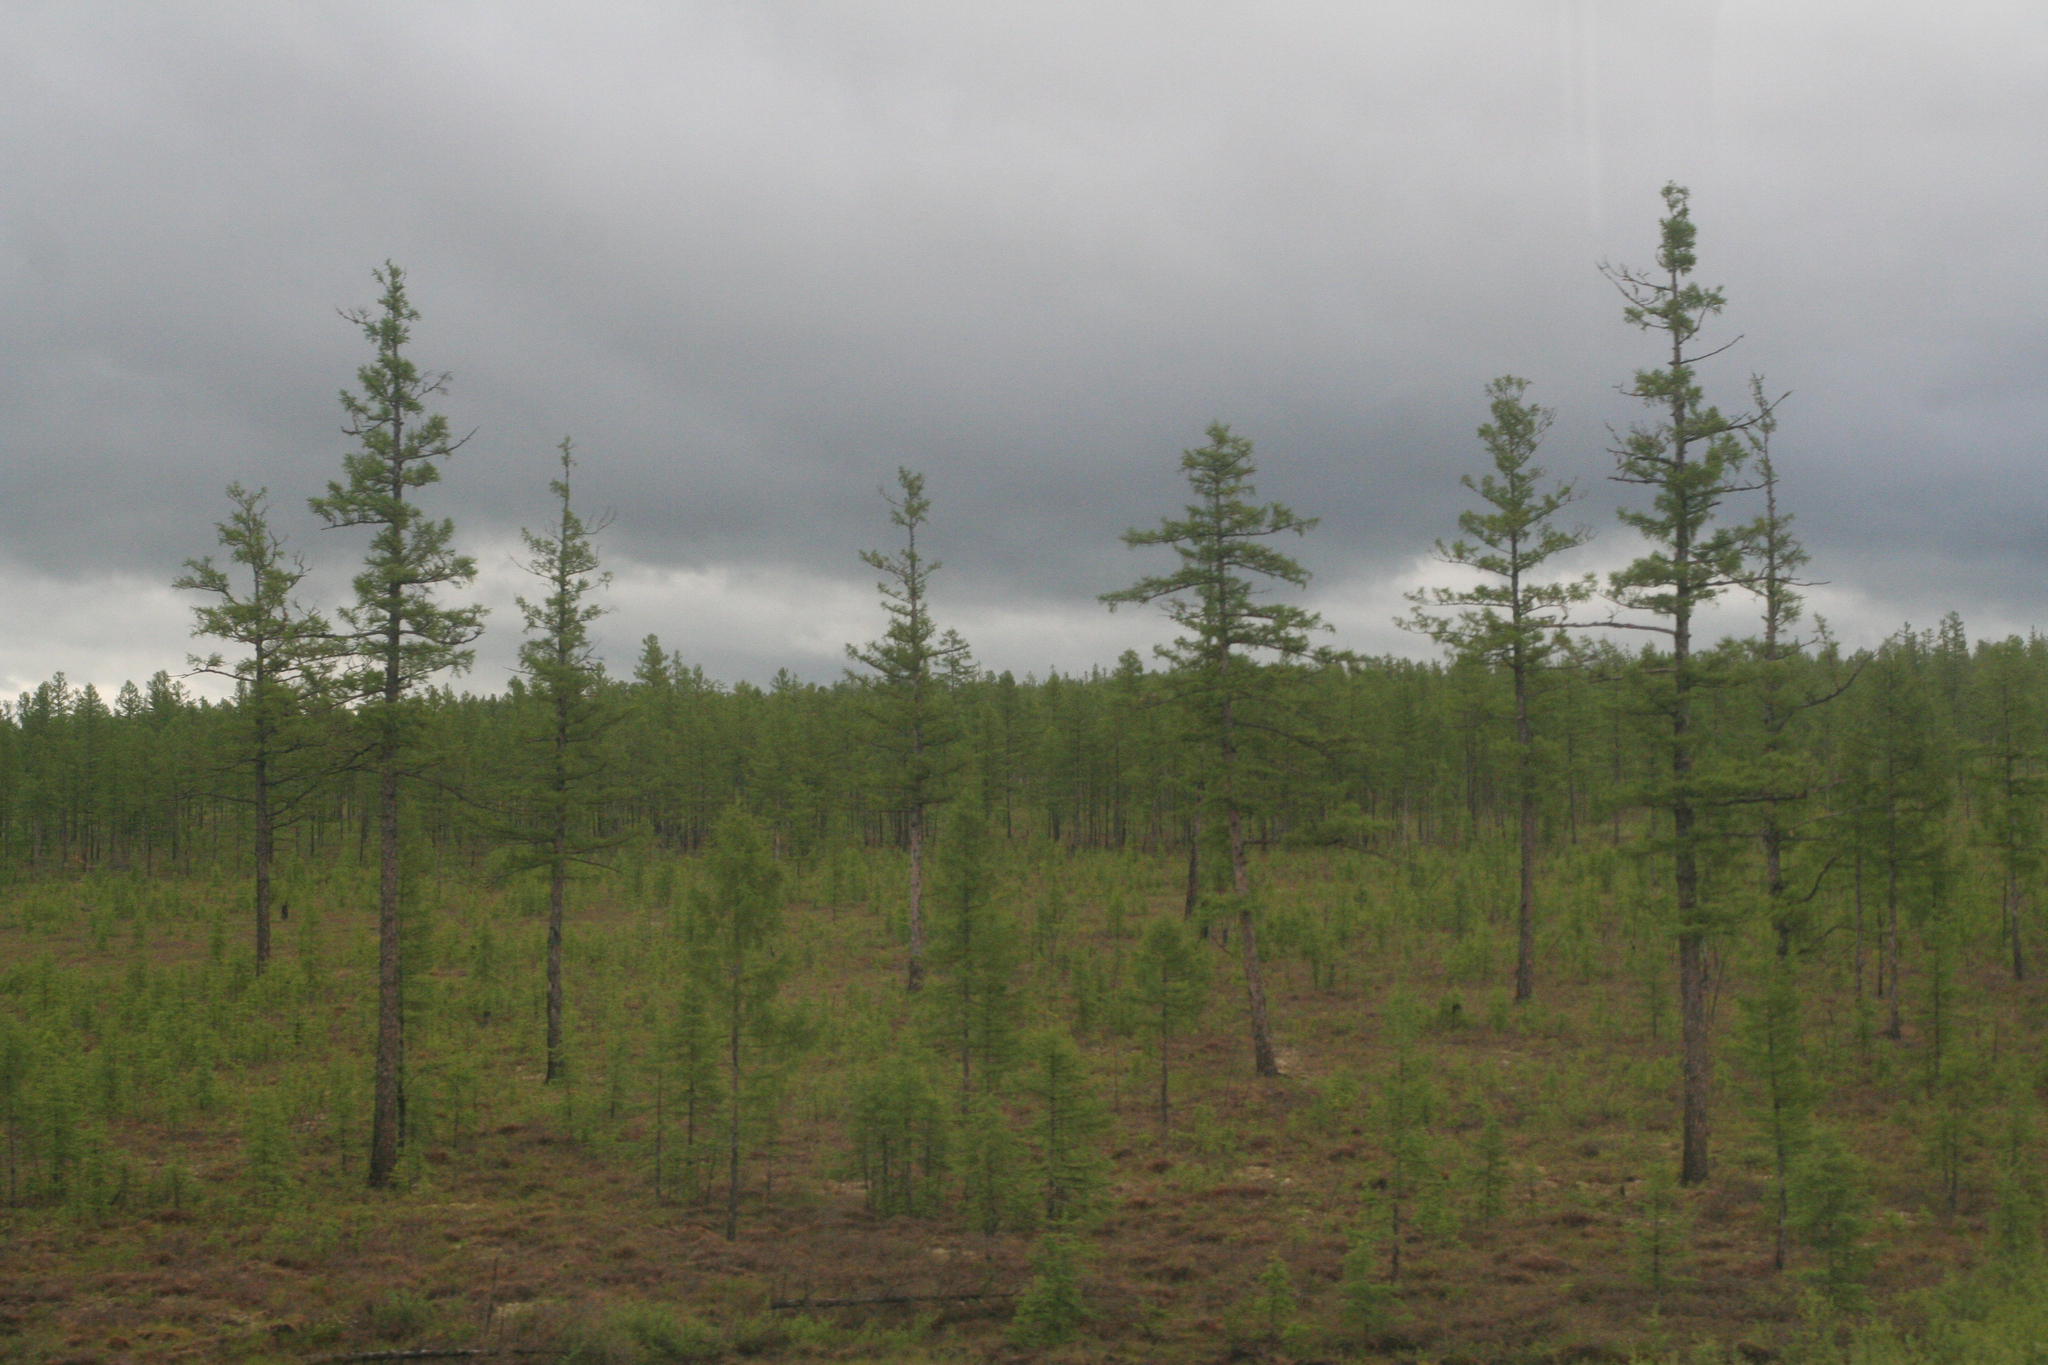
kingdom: Plantae
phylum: Tracheophyta
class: Pinopsida
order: Pinales
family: Pinaceae
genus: Larix
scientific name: Larix gmelinii
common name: Dahurian larch
